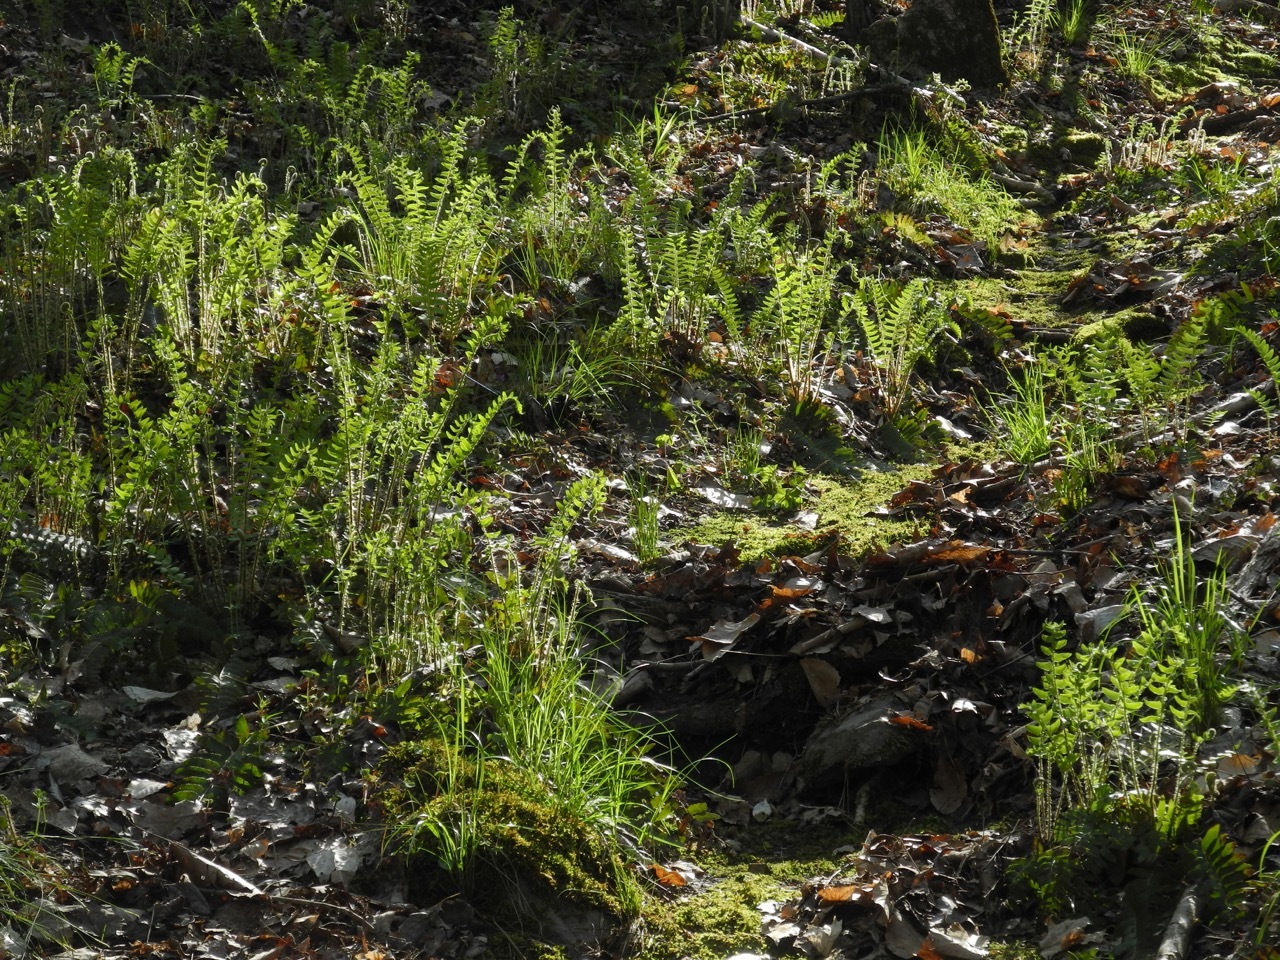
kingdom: Plantae
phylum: Tracheophyta
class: Polypodiopsida
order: Polypodiales
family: Dryopteridaceae
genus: Polystichum
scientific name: Polystichum acrostichoides
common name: Christmas fern
